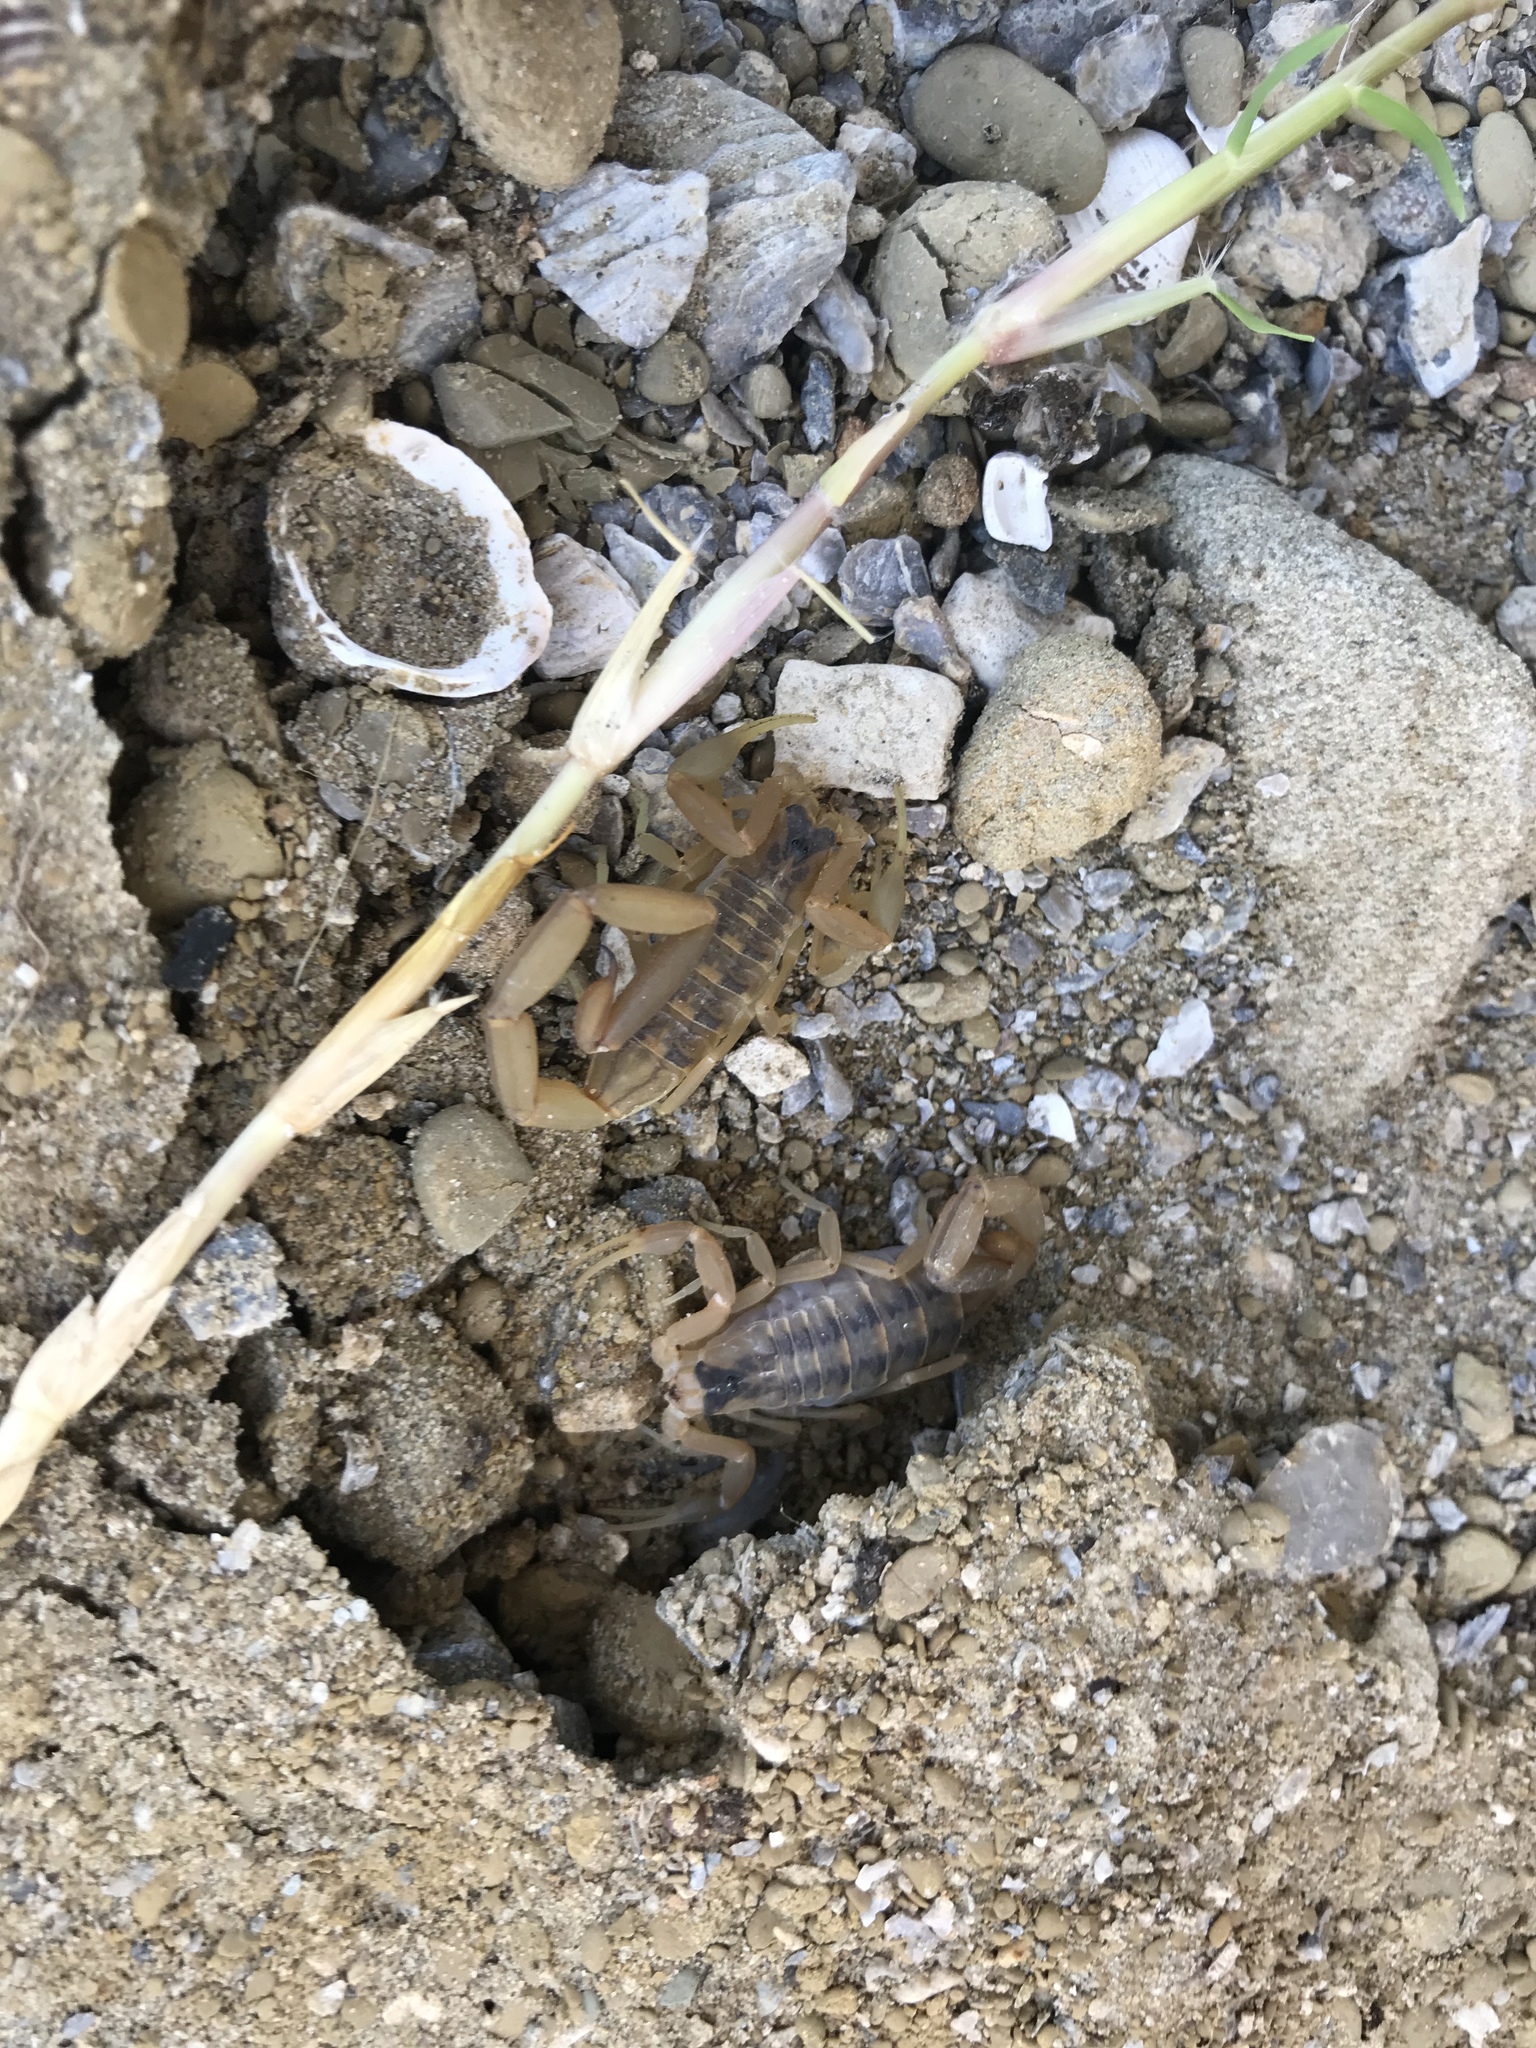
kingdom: Animalia
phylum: Arthropoda
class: Arachnida
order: Scorpiones
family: Buthidae
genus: Centruroides
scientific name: Centruroides vittatus
